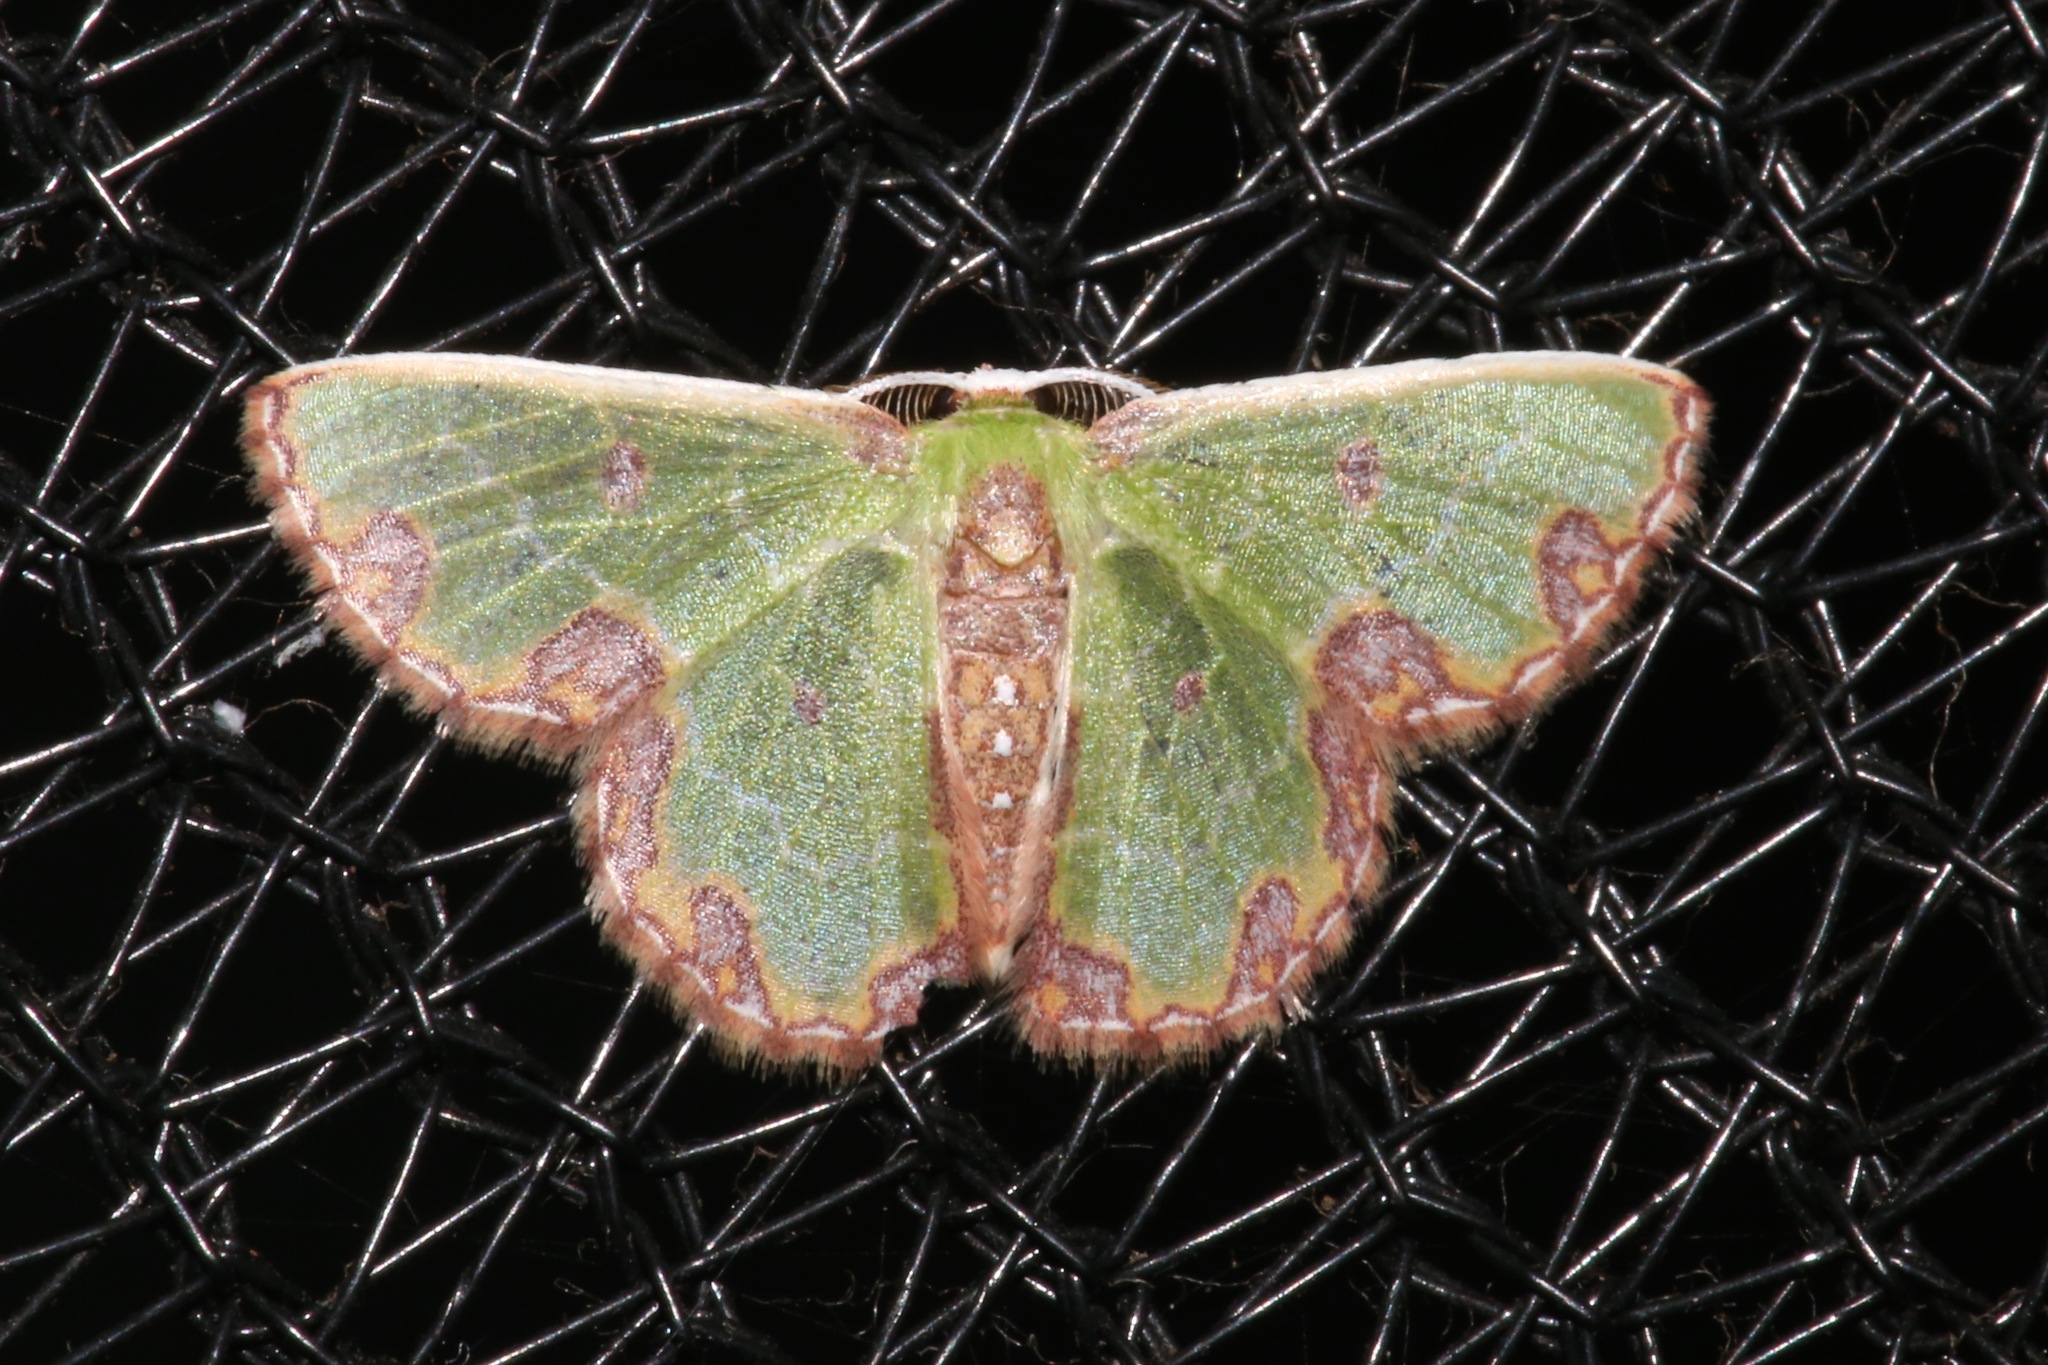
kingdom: Animalia
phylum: Arthropoda
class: Insecta
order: Lepidoptera
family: Geometridae
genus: Synchlora
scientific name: Synchlora gerularia
